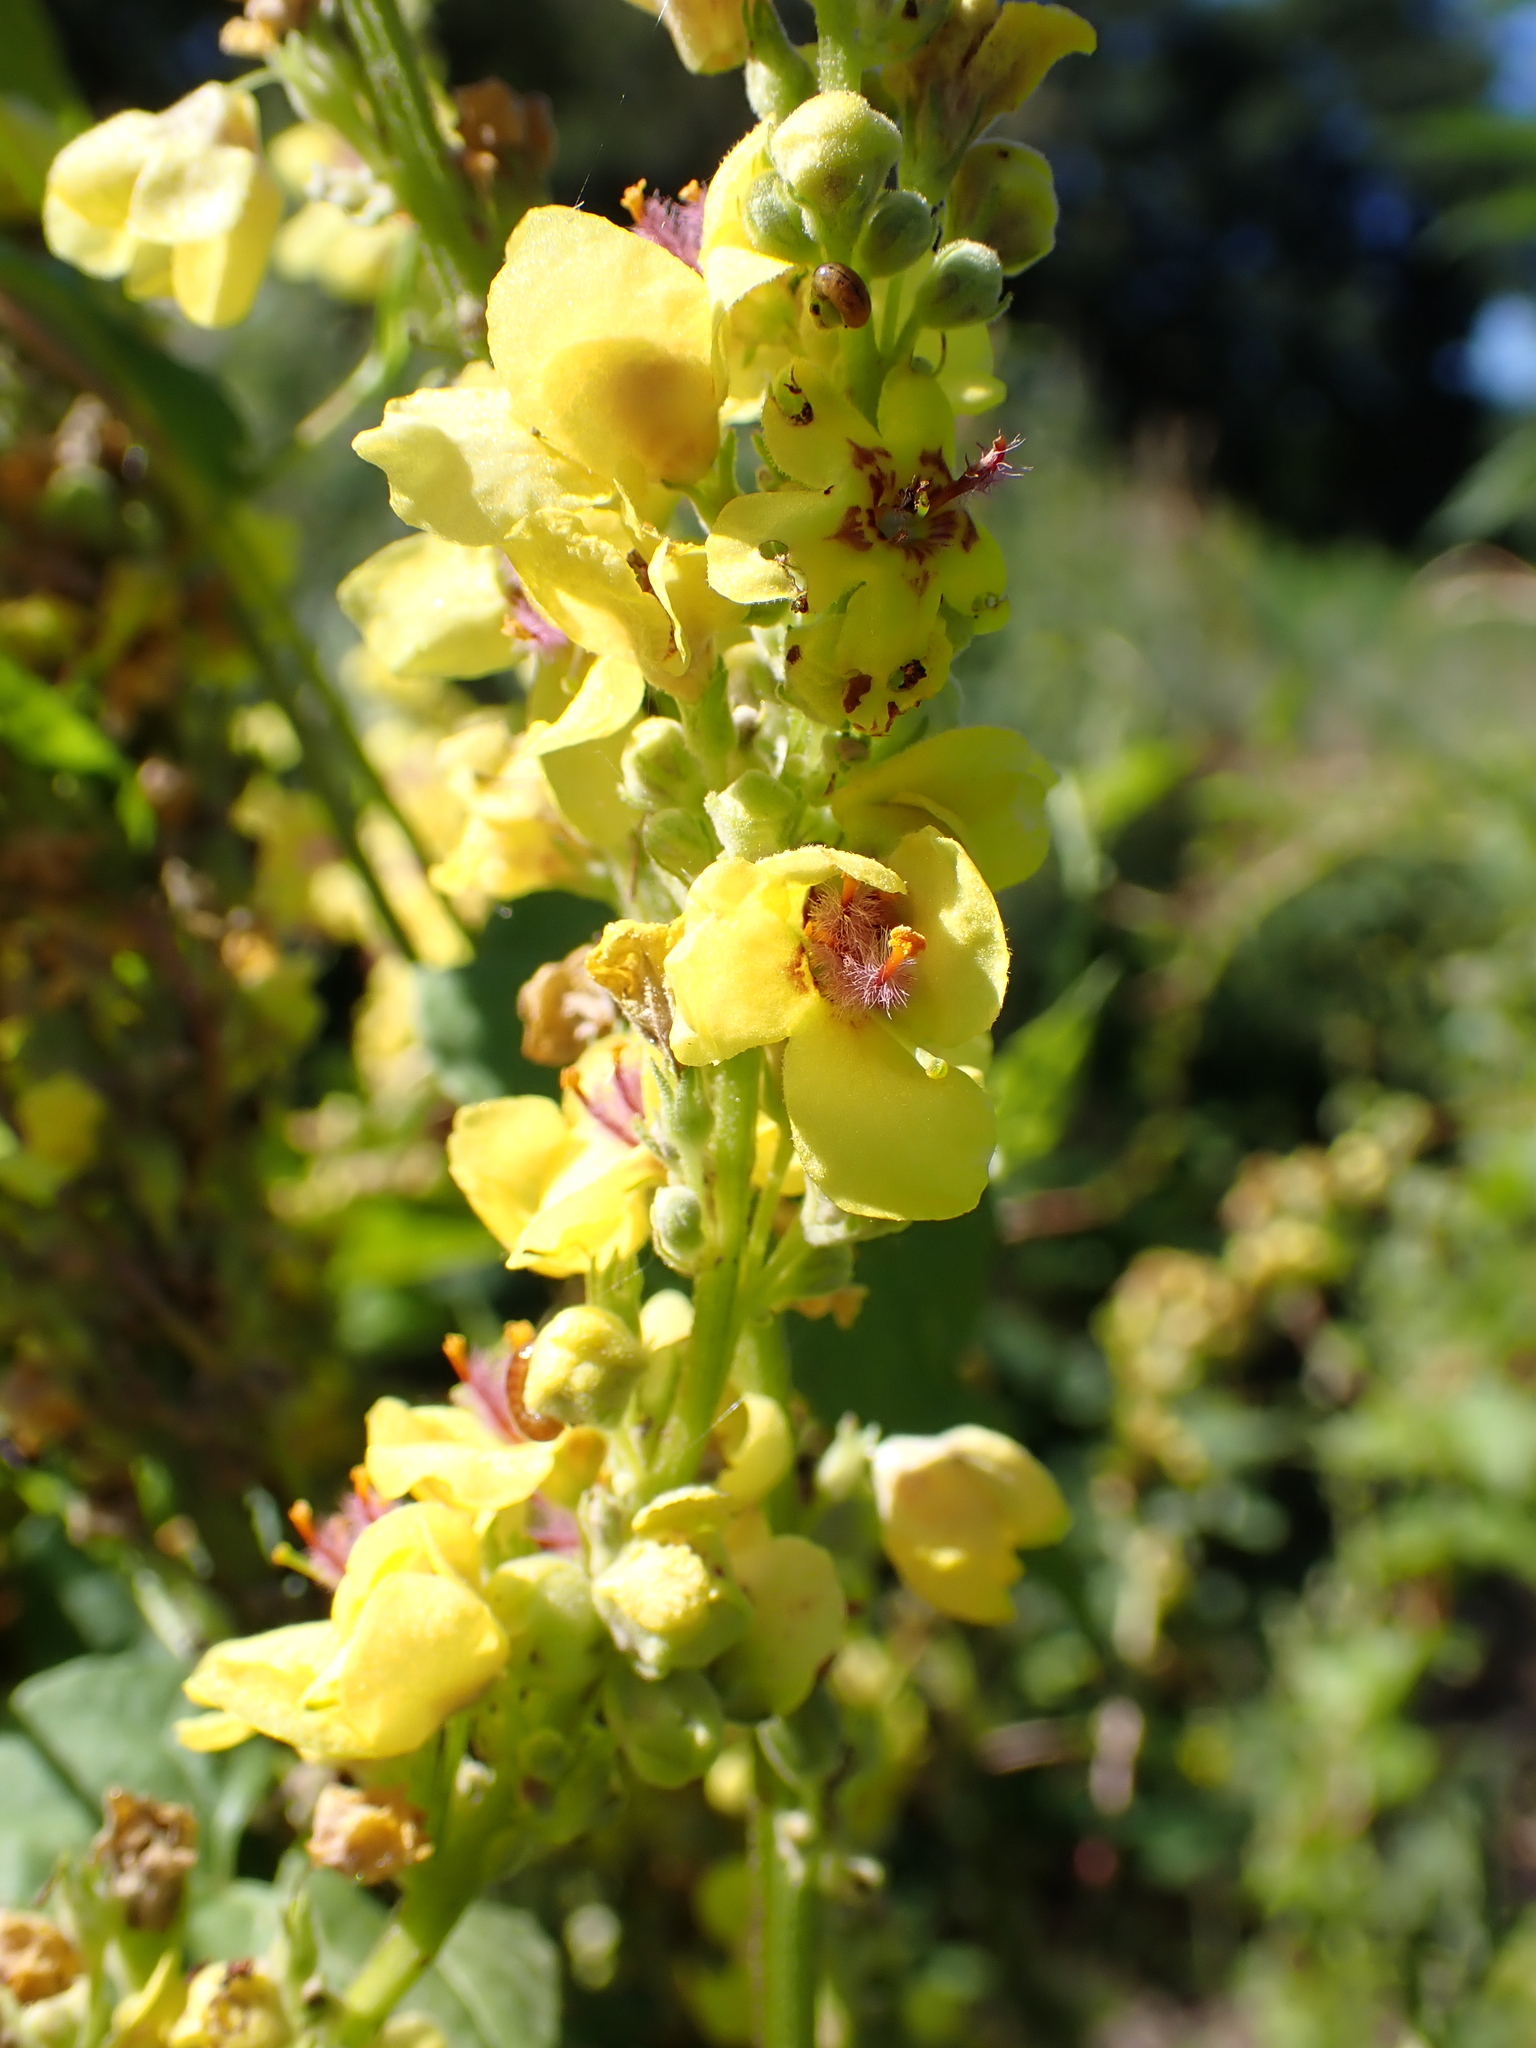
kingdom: Plantae
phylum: Tracheophyta
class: Magnoliopsida
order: Lamiales
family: Scrophulariaceae
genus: Verbascum
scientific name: Verbascum nigrum
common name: Dark mullein
